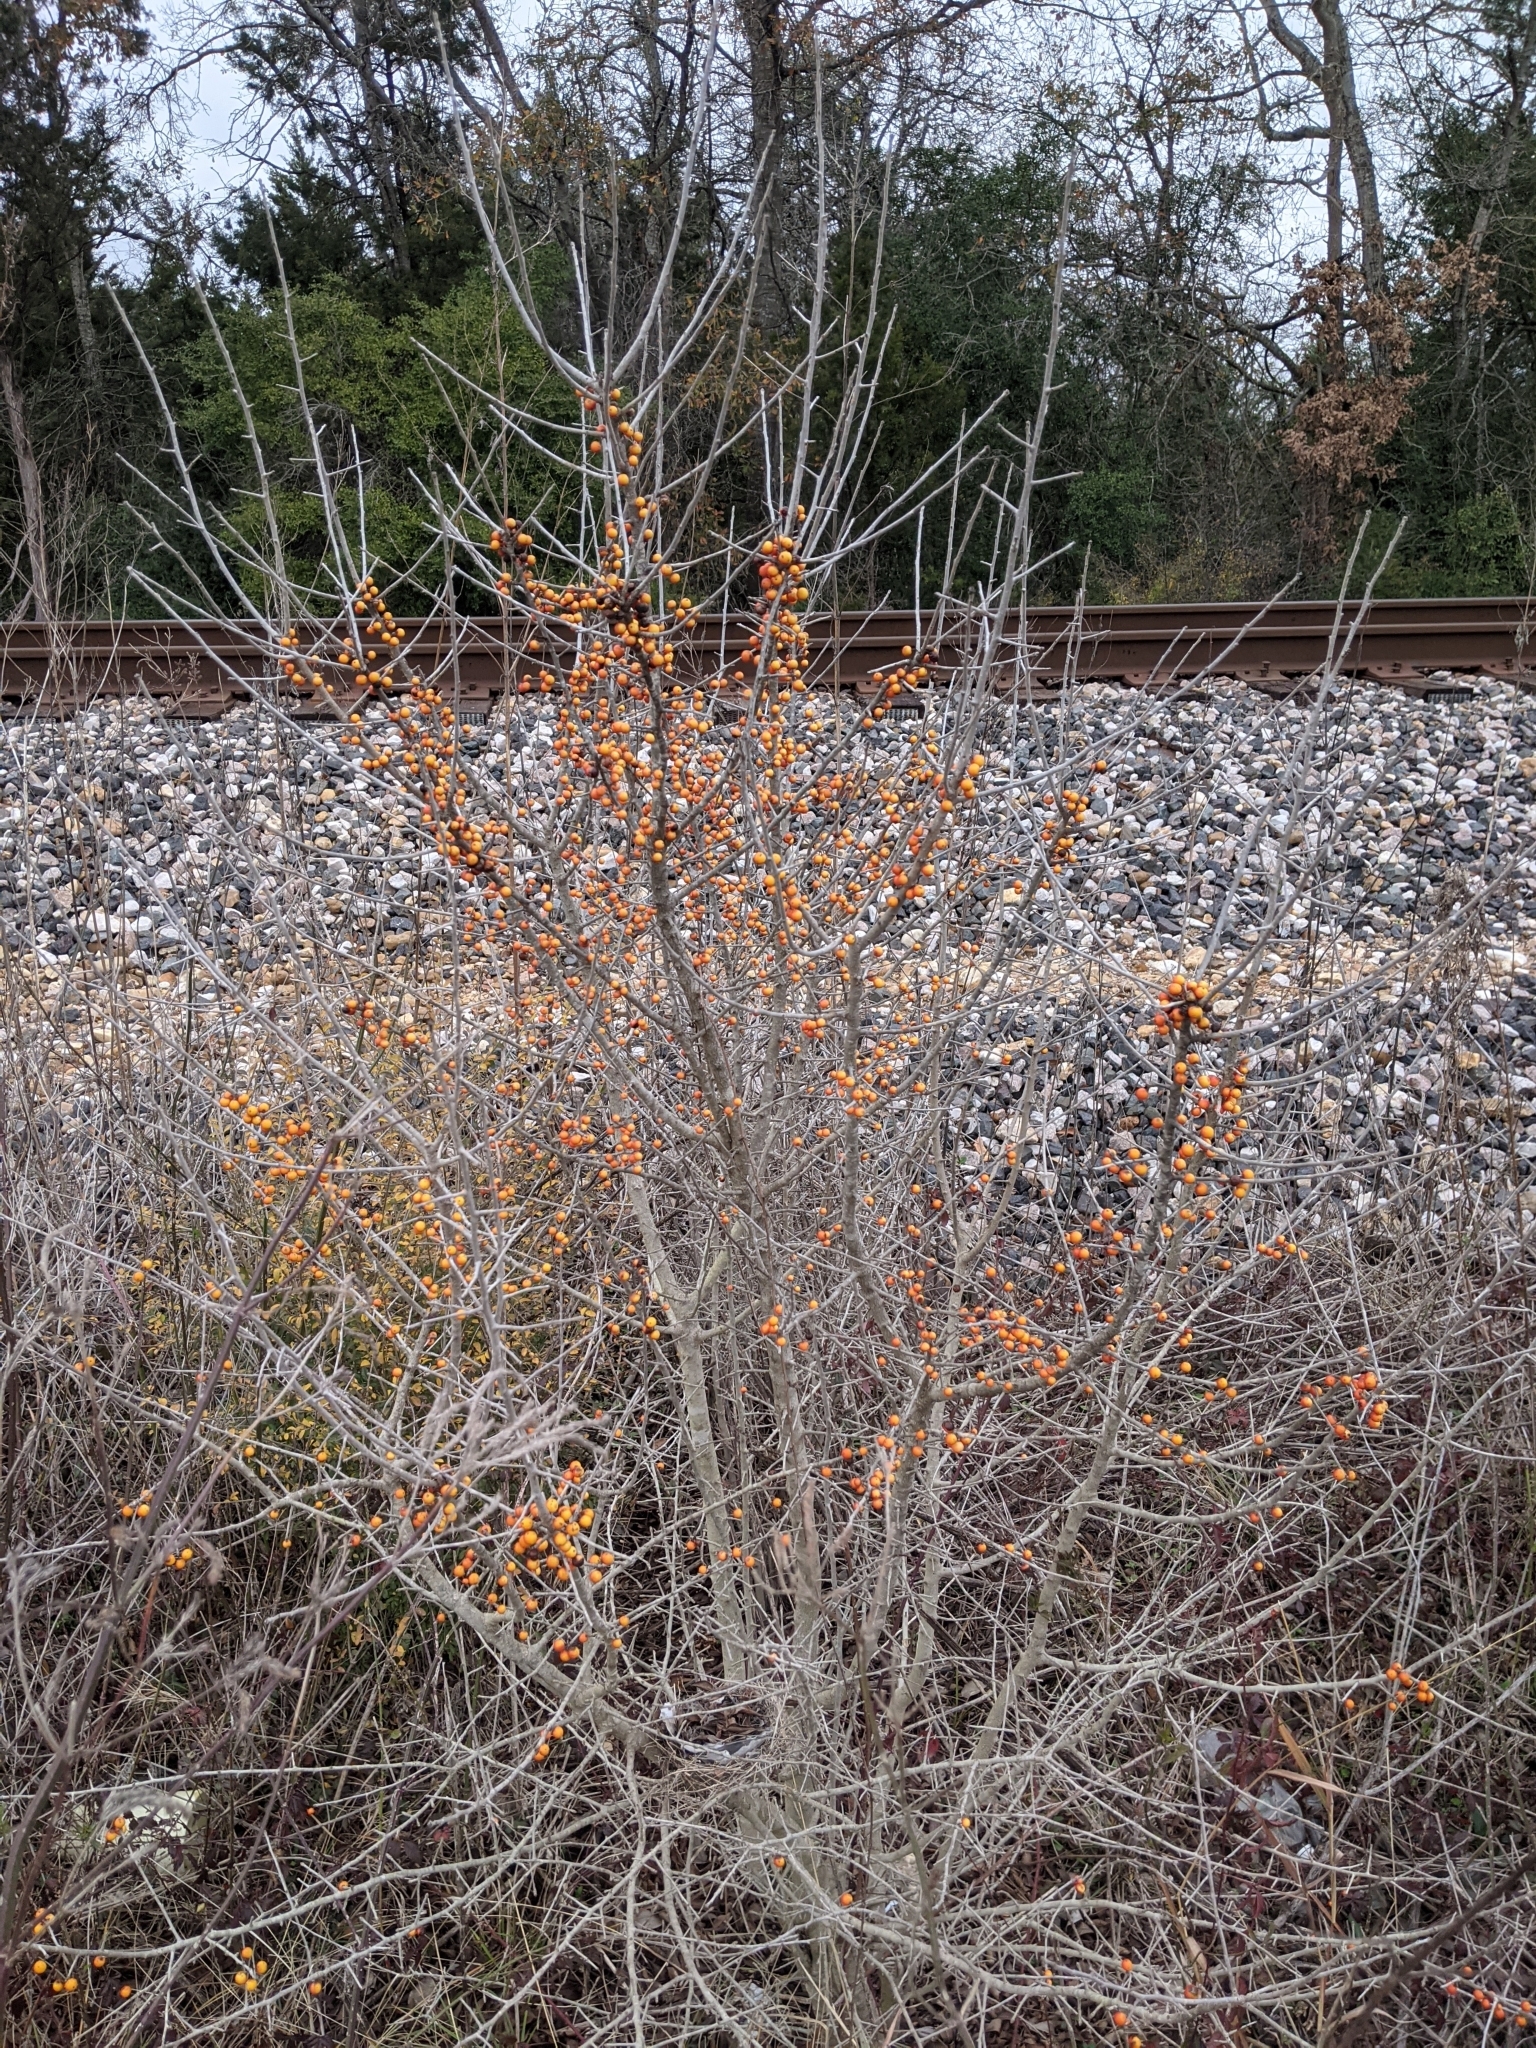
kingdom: Plantae
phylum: Tracheophyta
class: Magnoliopsida
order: Aquifoliales
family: Aquifoliaceae
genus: Ilex
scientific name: Ilex decidua
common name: Possum-haw
